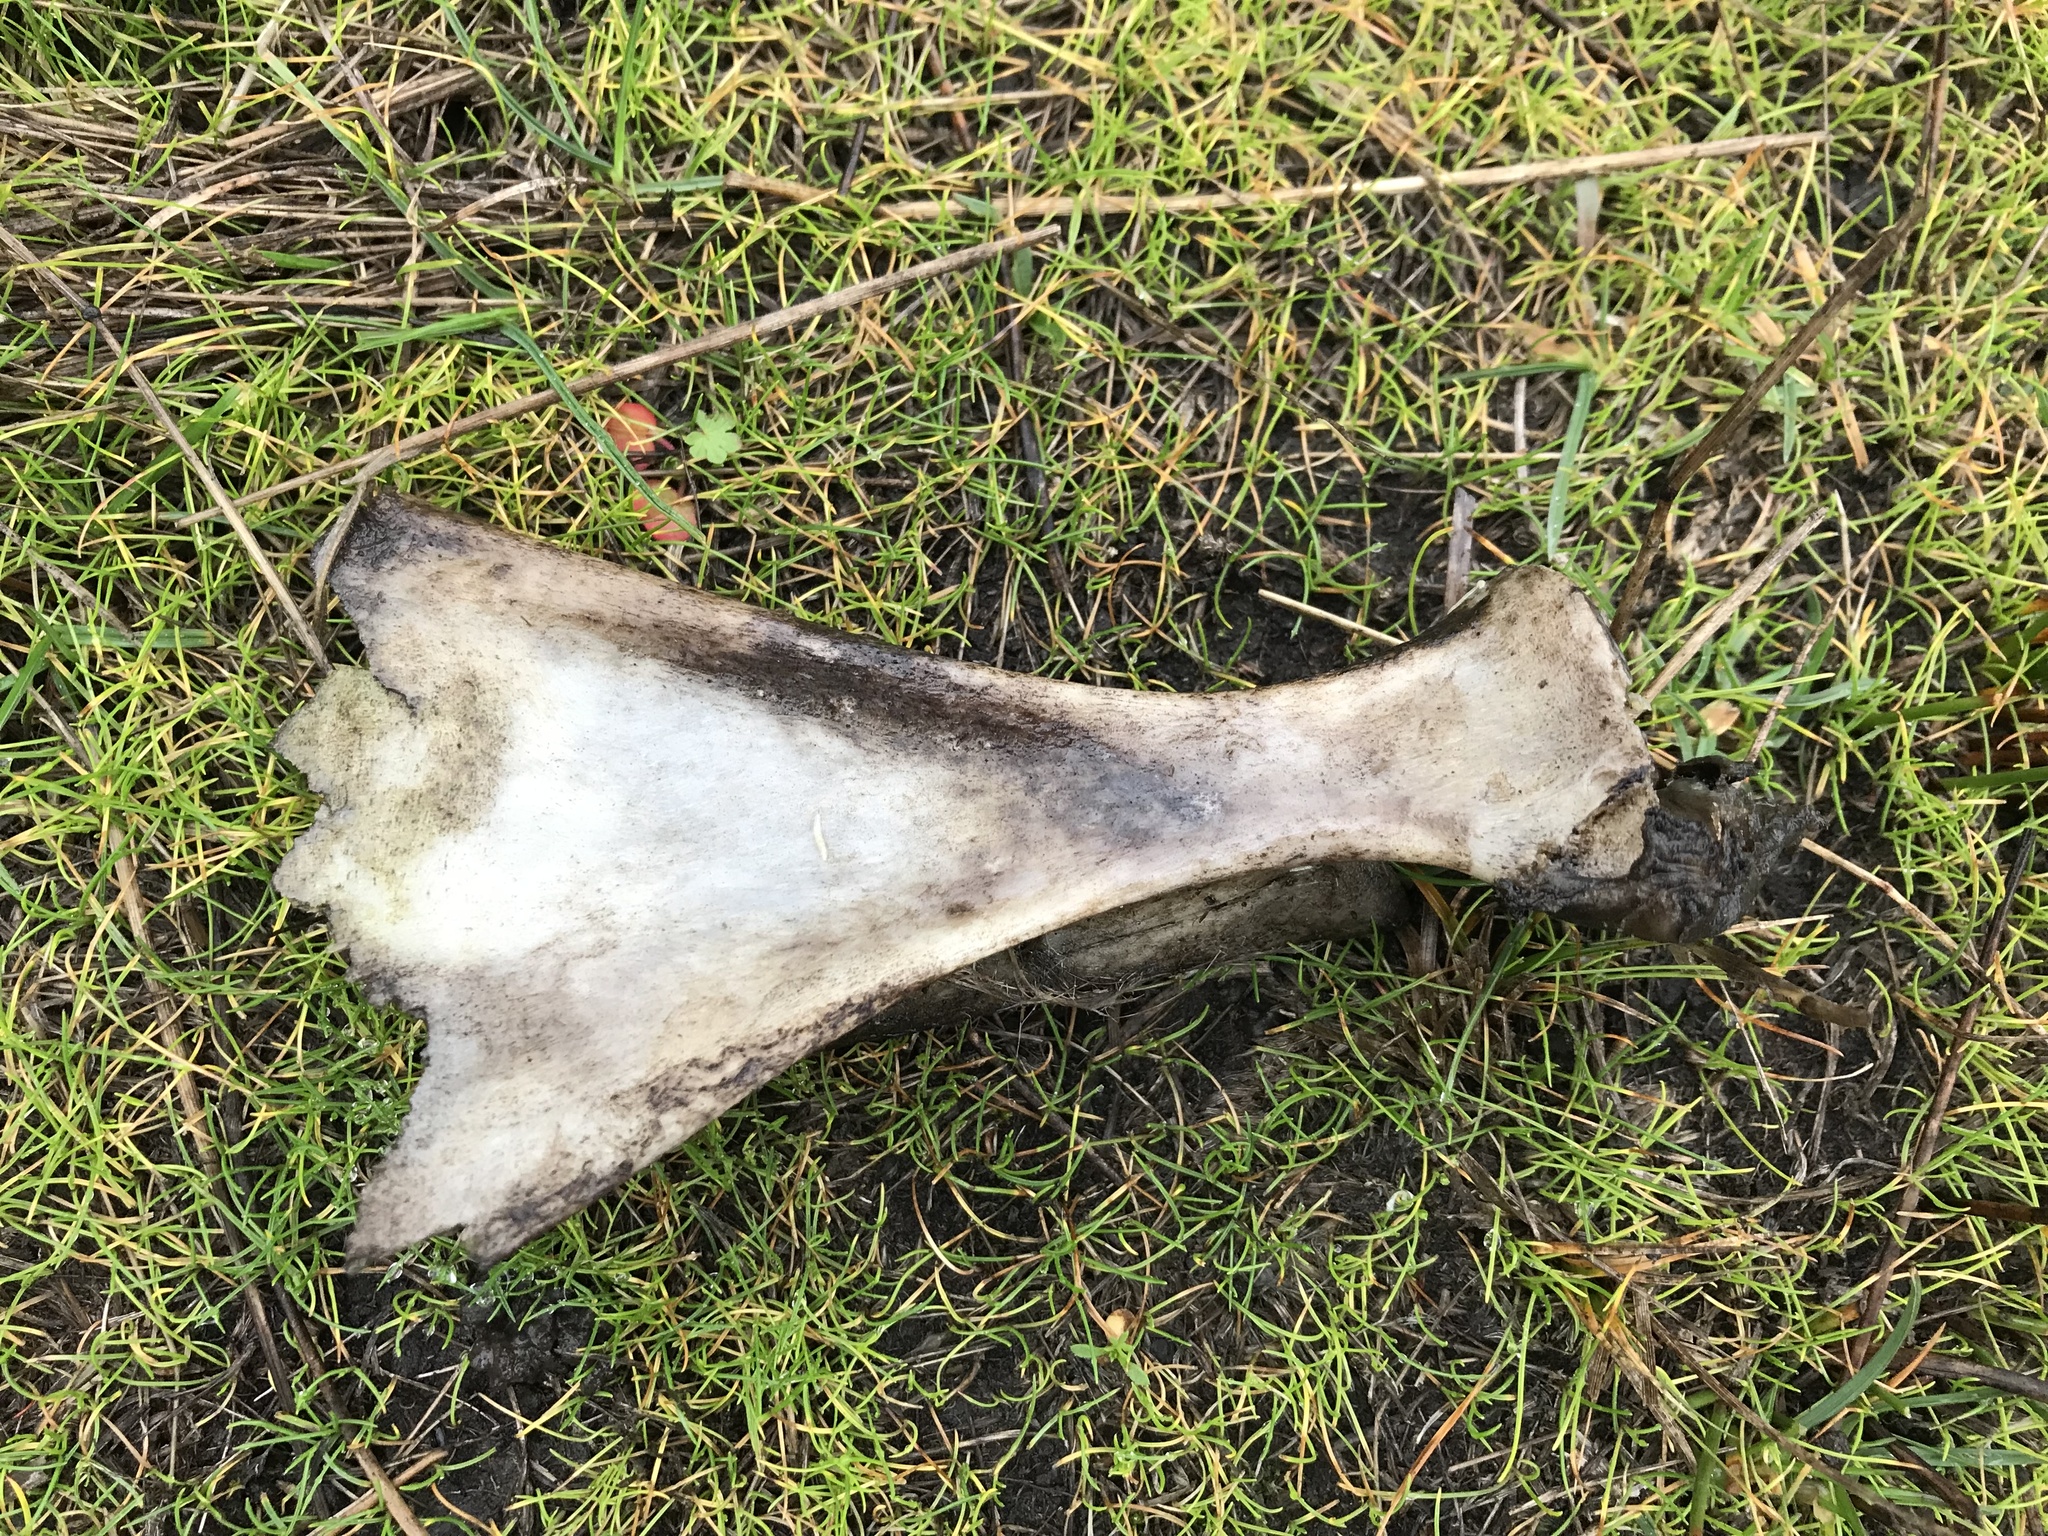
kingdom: Animalia
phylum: Chordata
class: Mammalia
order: Artiodactyla
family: Cervidae
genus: Odocoileus
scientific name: Odocoileus hemionus
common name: Mule deer
